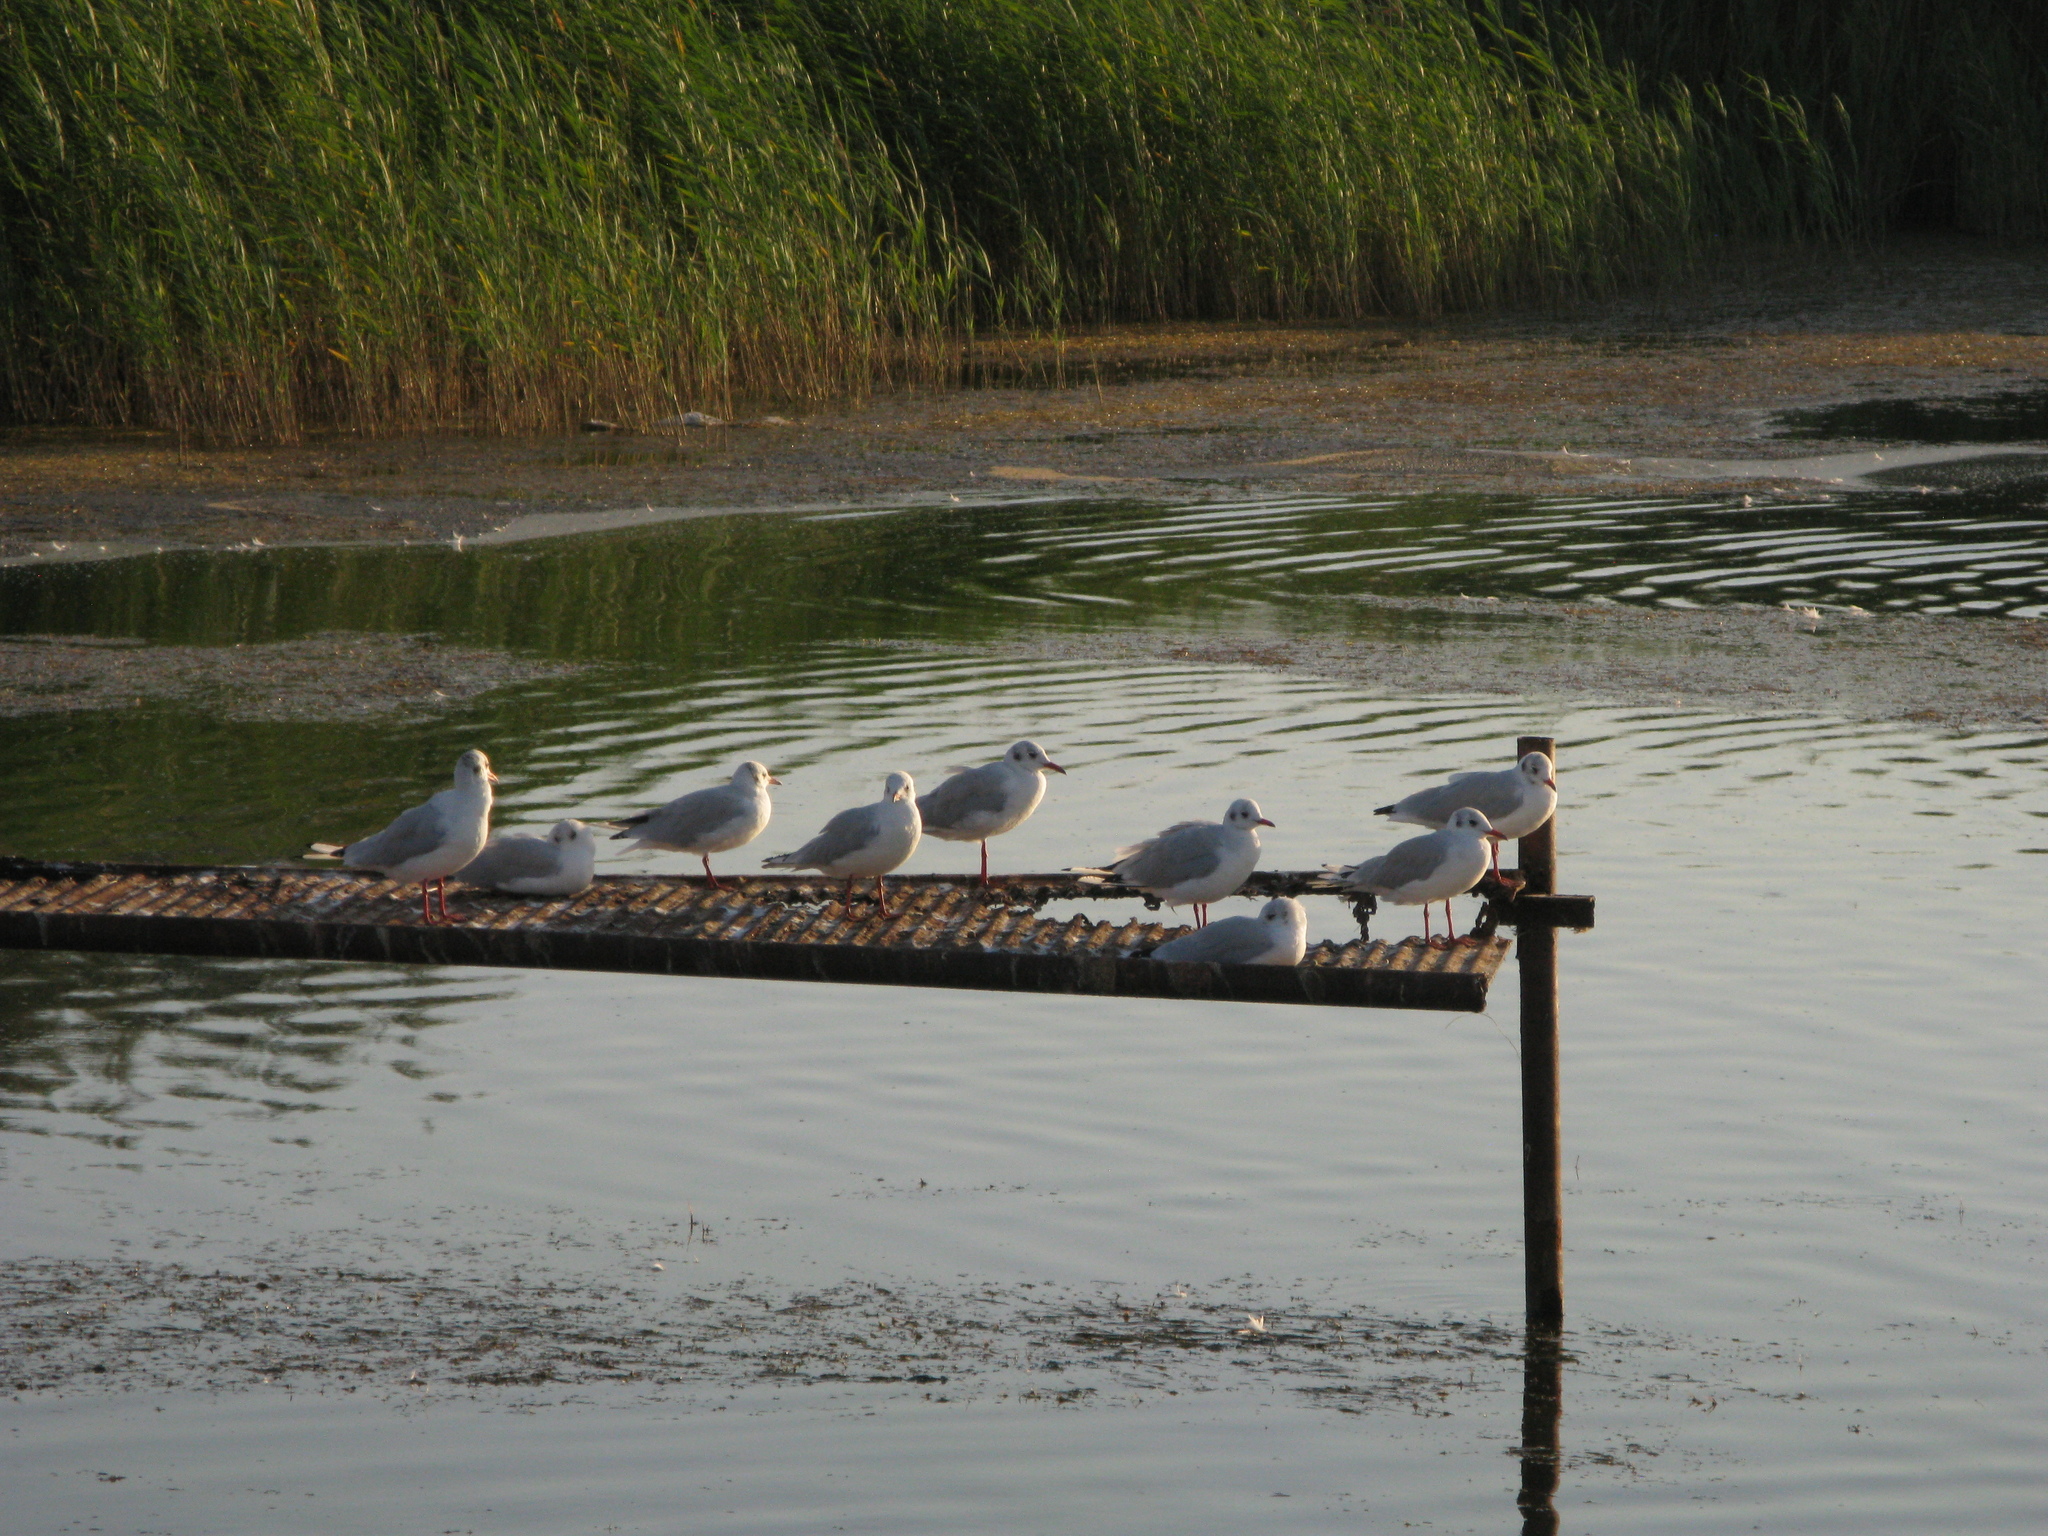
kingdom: Animalia
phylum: Chordata
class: Aves
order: Charadriiformes
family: Laridae
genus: Chroicocephalus
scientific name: Chroicocephalus ridibundus
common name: Black-headed gull
